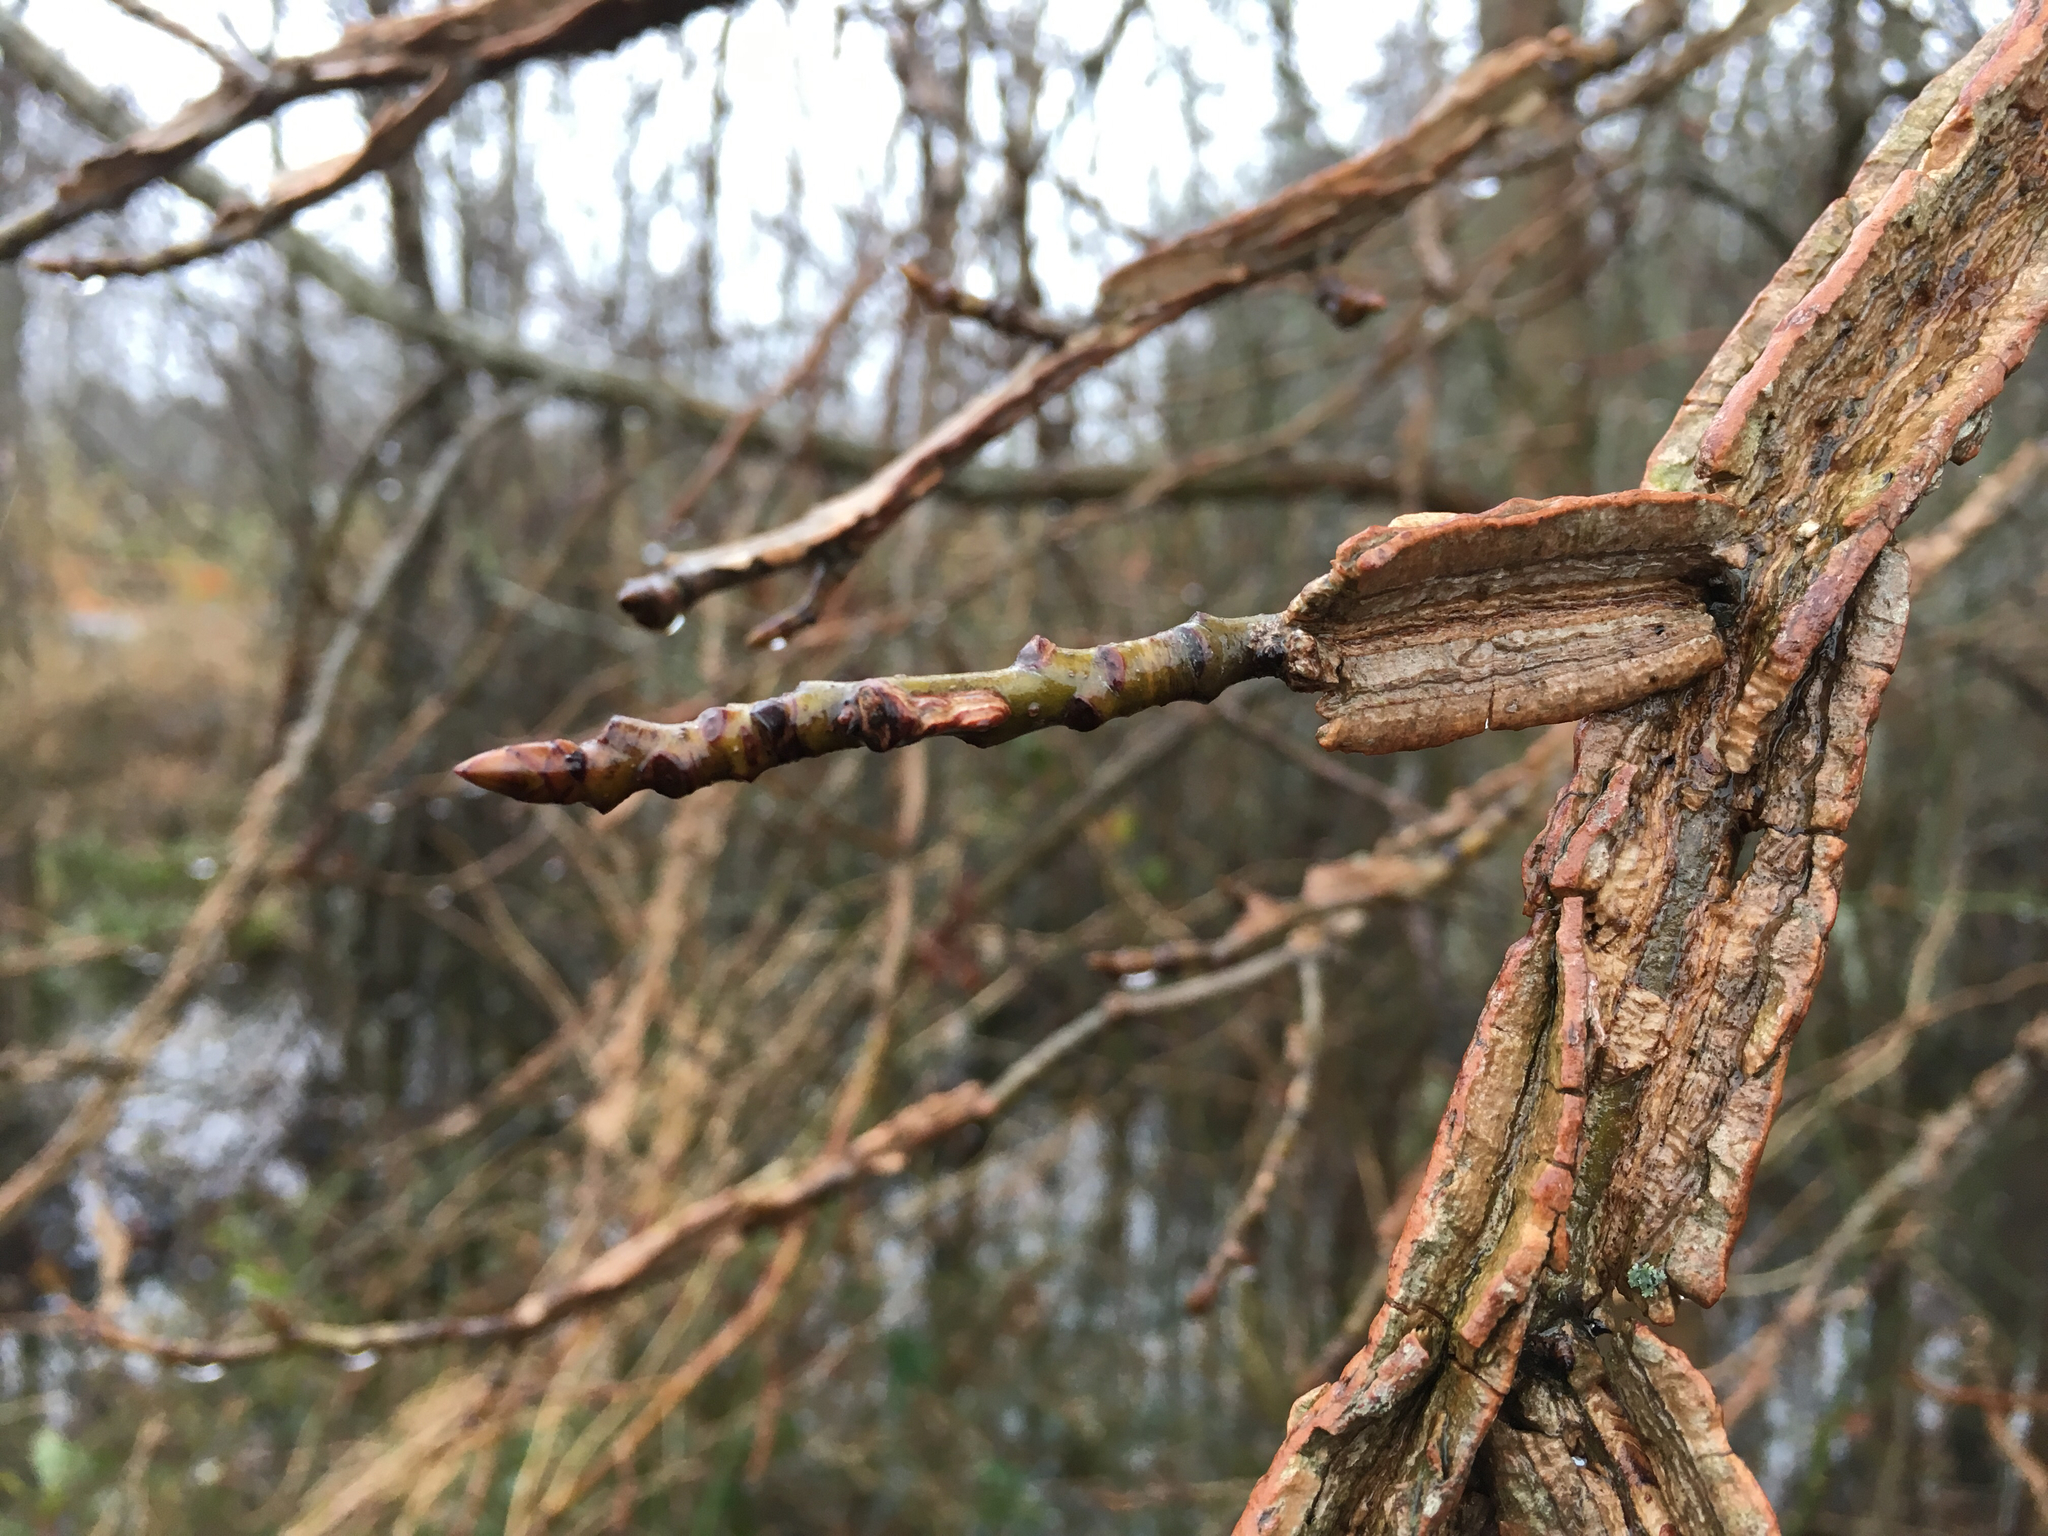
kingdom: Plantae
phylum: Tracheophyta
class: Magnoliopsida
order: Saxifragales
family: Altingiaceae
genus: Liquidambar
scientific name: Liquidambar styraciflua
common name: Sweet gum
